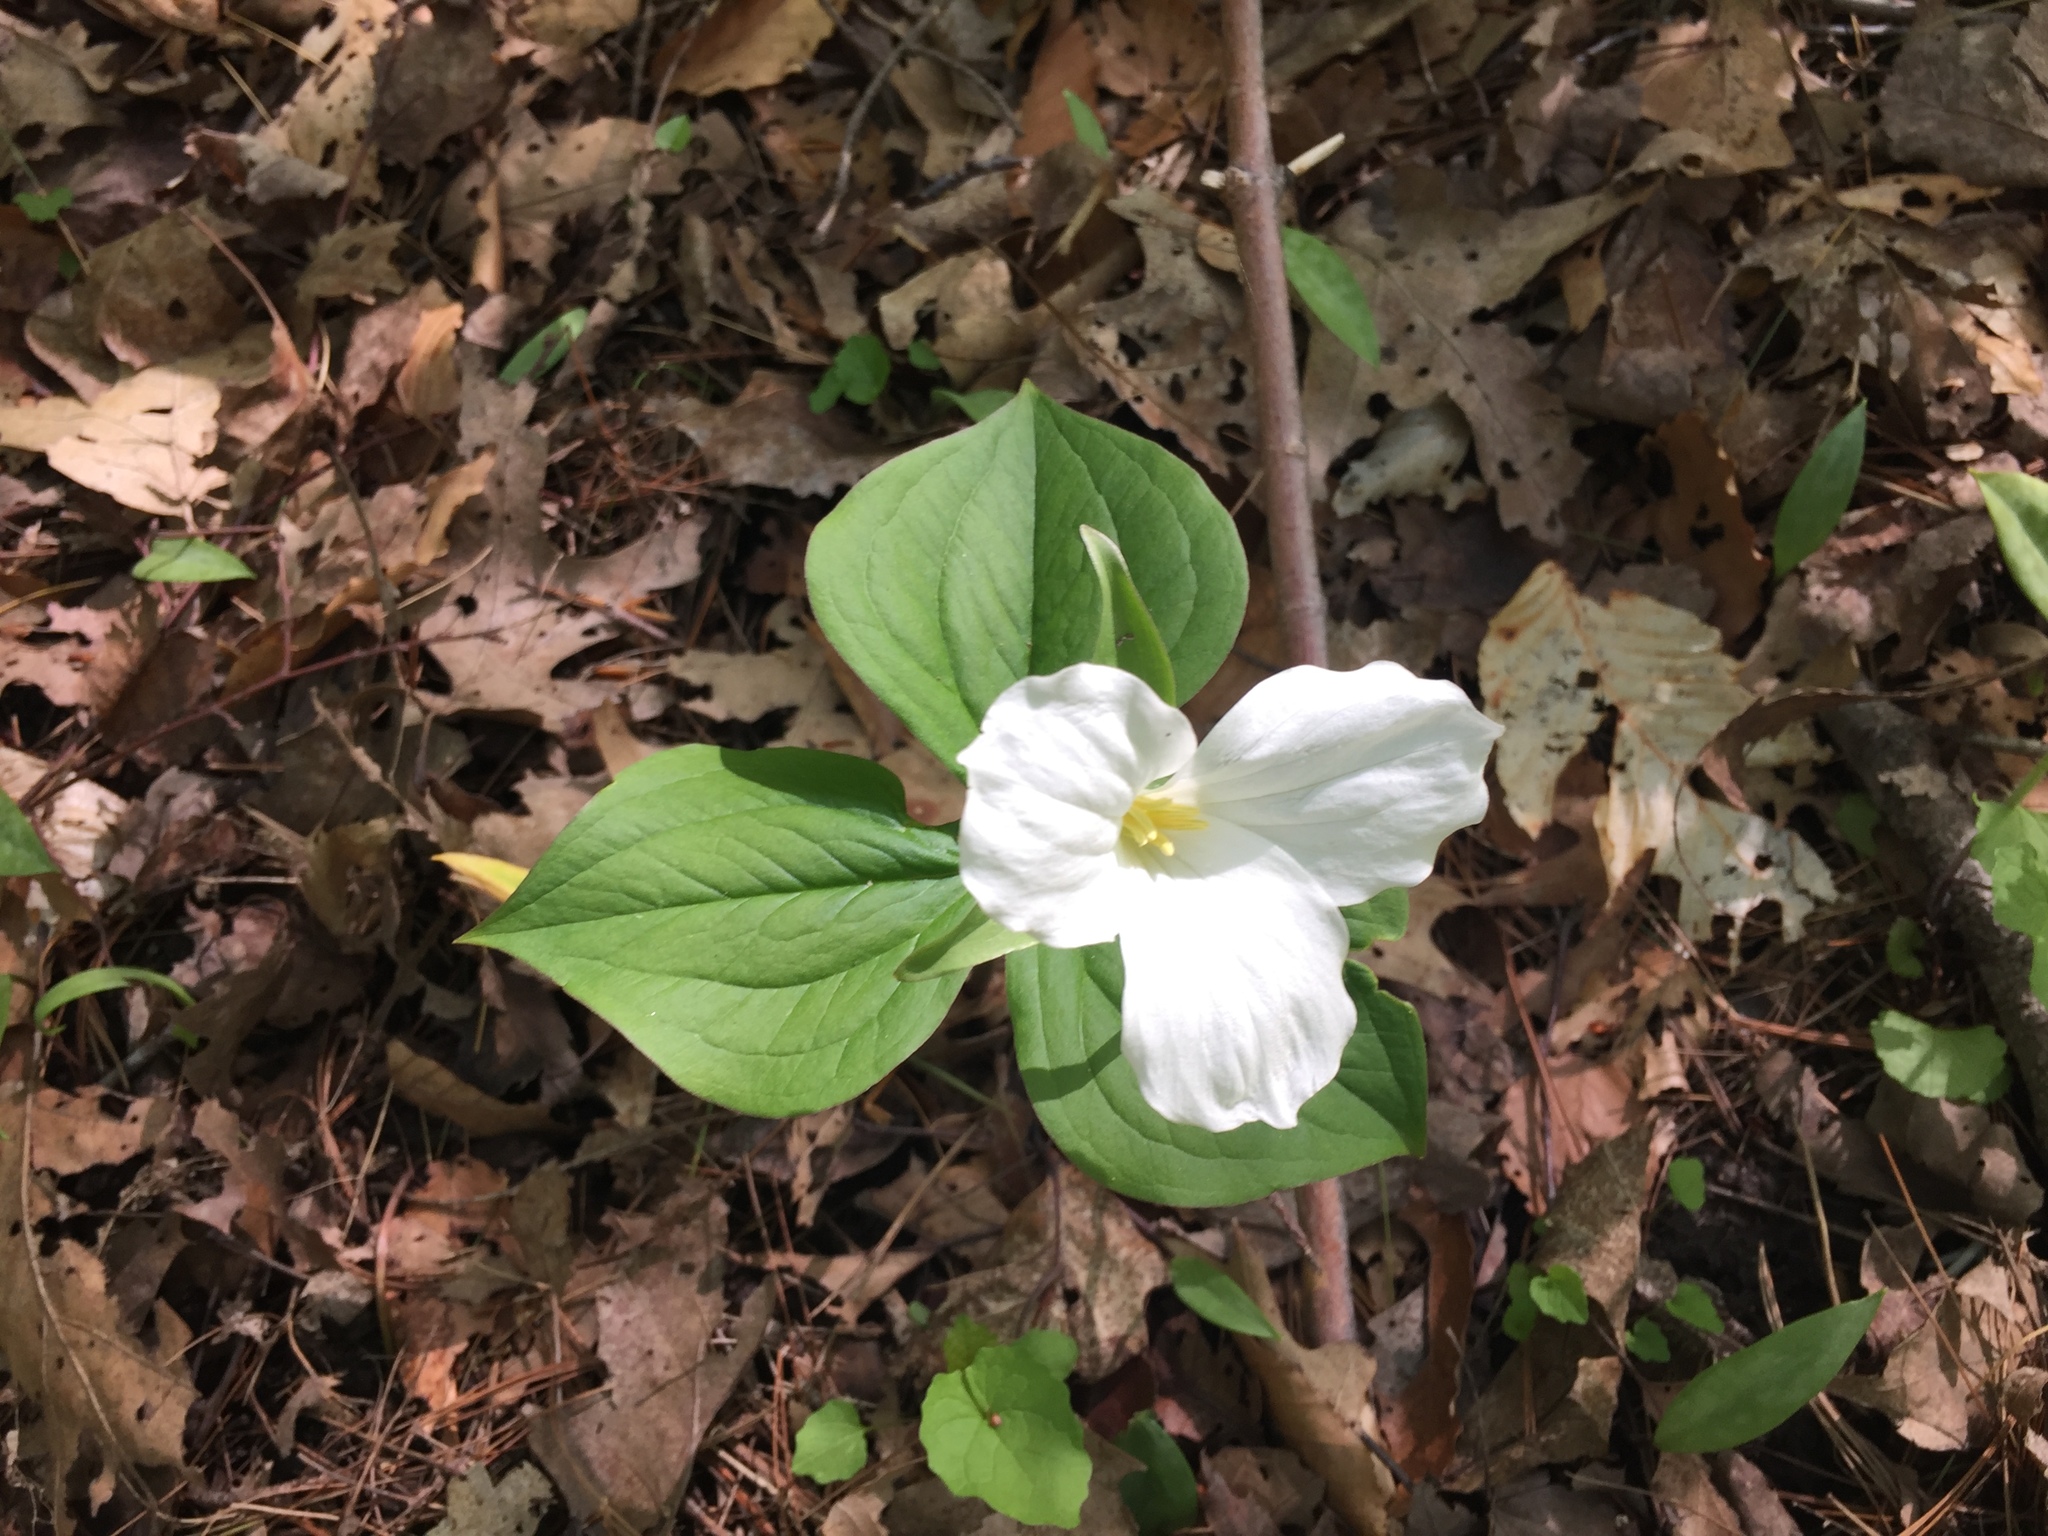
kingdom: Plantae
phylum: Tracheophyta
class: Liliopsida
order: Liliales
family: Melanthiaceae
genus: Trillium
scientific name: Trillium grandiflorum
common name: Great white trillium
